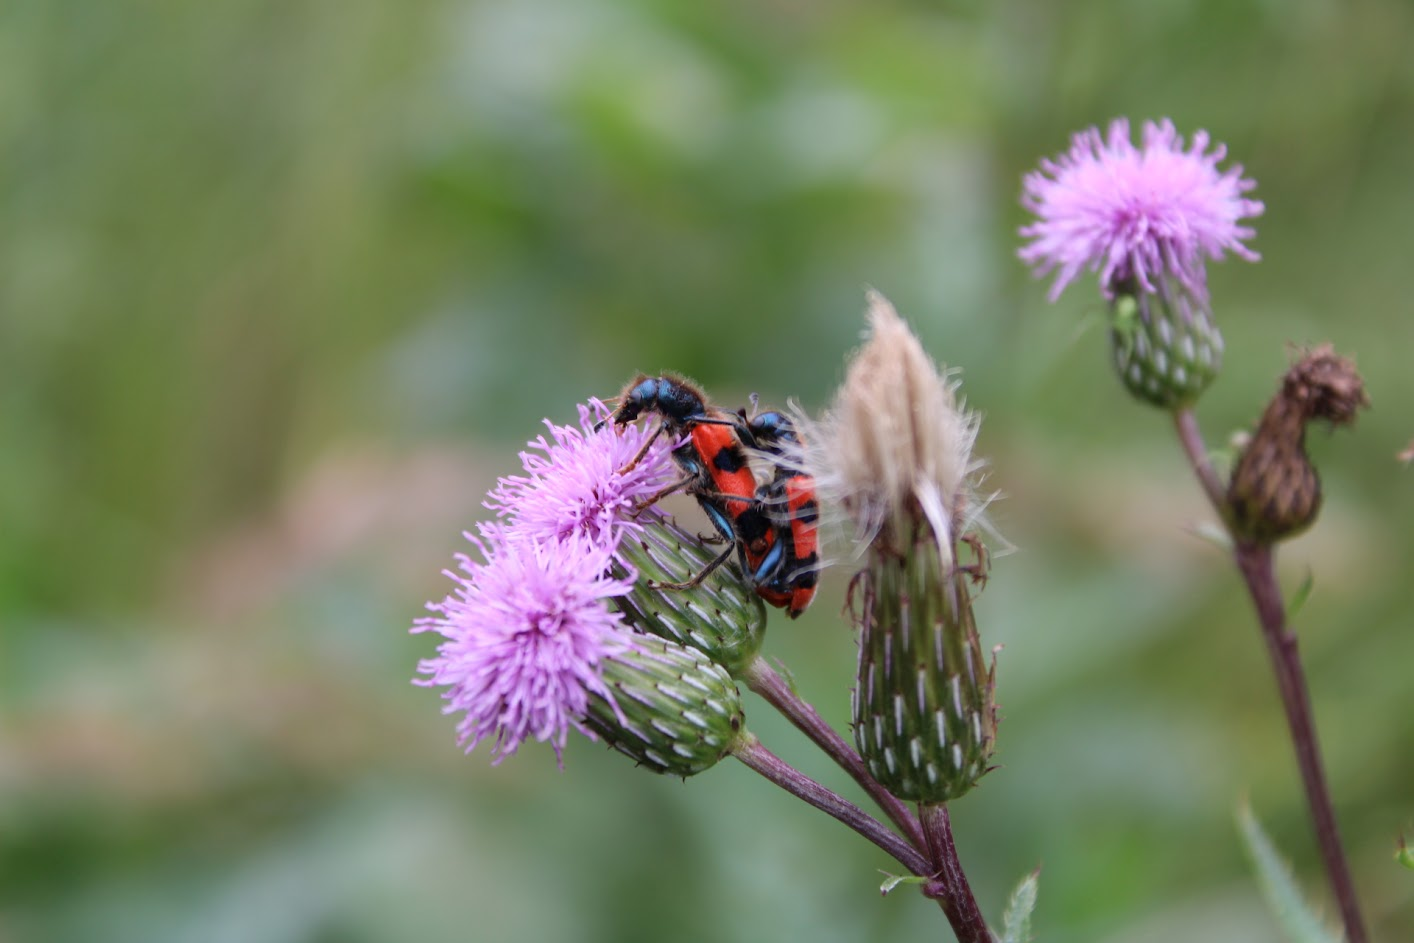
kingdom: Animalia
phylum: Arthropoda
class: Insecta
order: Coleoptera
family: Cleridae
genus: Trichodes
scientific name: Trichodes apiarius
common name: Bee-eating beetle
